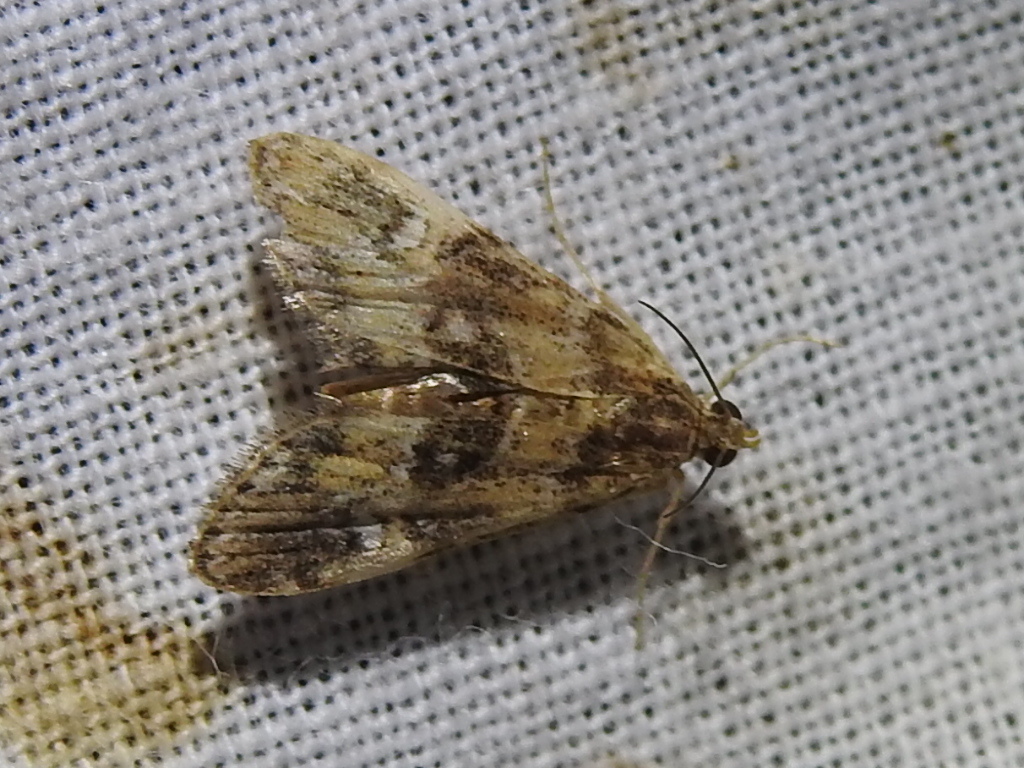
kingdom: Animalia
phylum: Arthropoda
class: Insecta
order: Lepidoptera
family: Crambidae
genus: Elophila
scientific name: Elophila obliteralis
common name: Waterlily leafcutter moth
